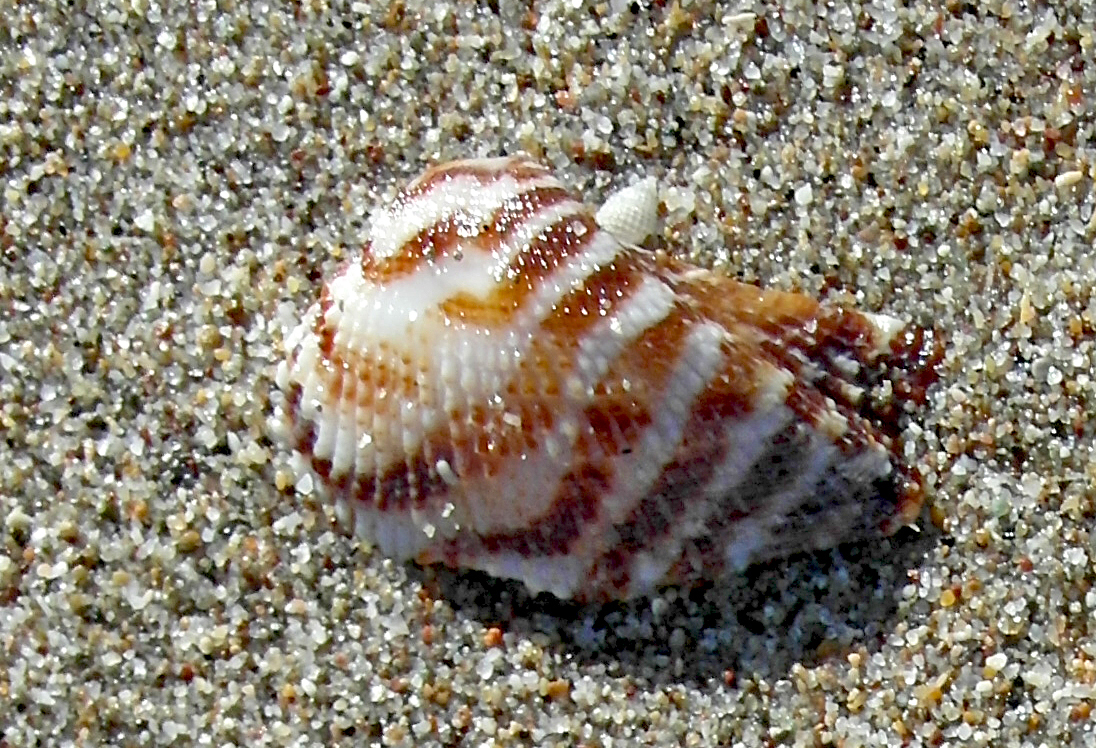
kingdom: Animalia
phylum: Mollusca
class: Bivalvia
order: Arcida
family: Arcidae
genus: Arca
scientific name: Arca noae
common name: Noah's arch
